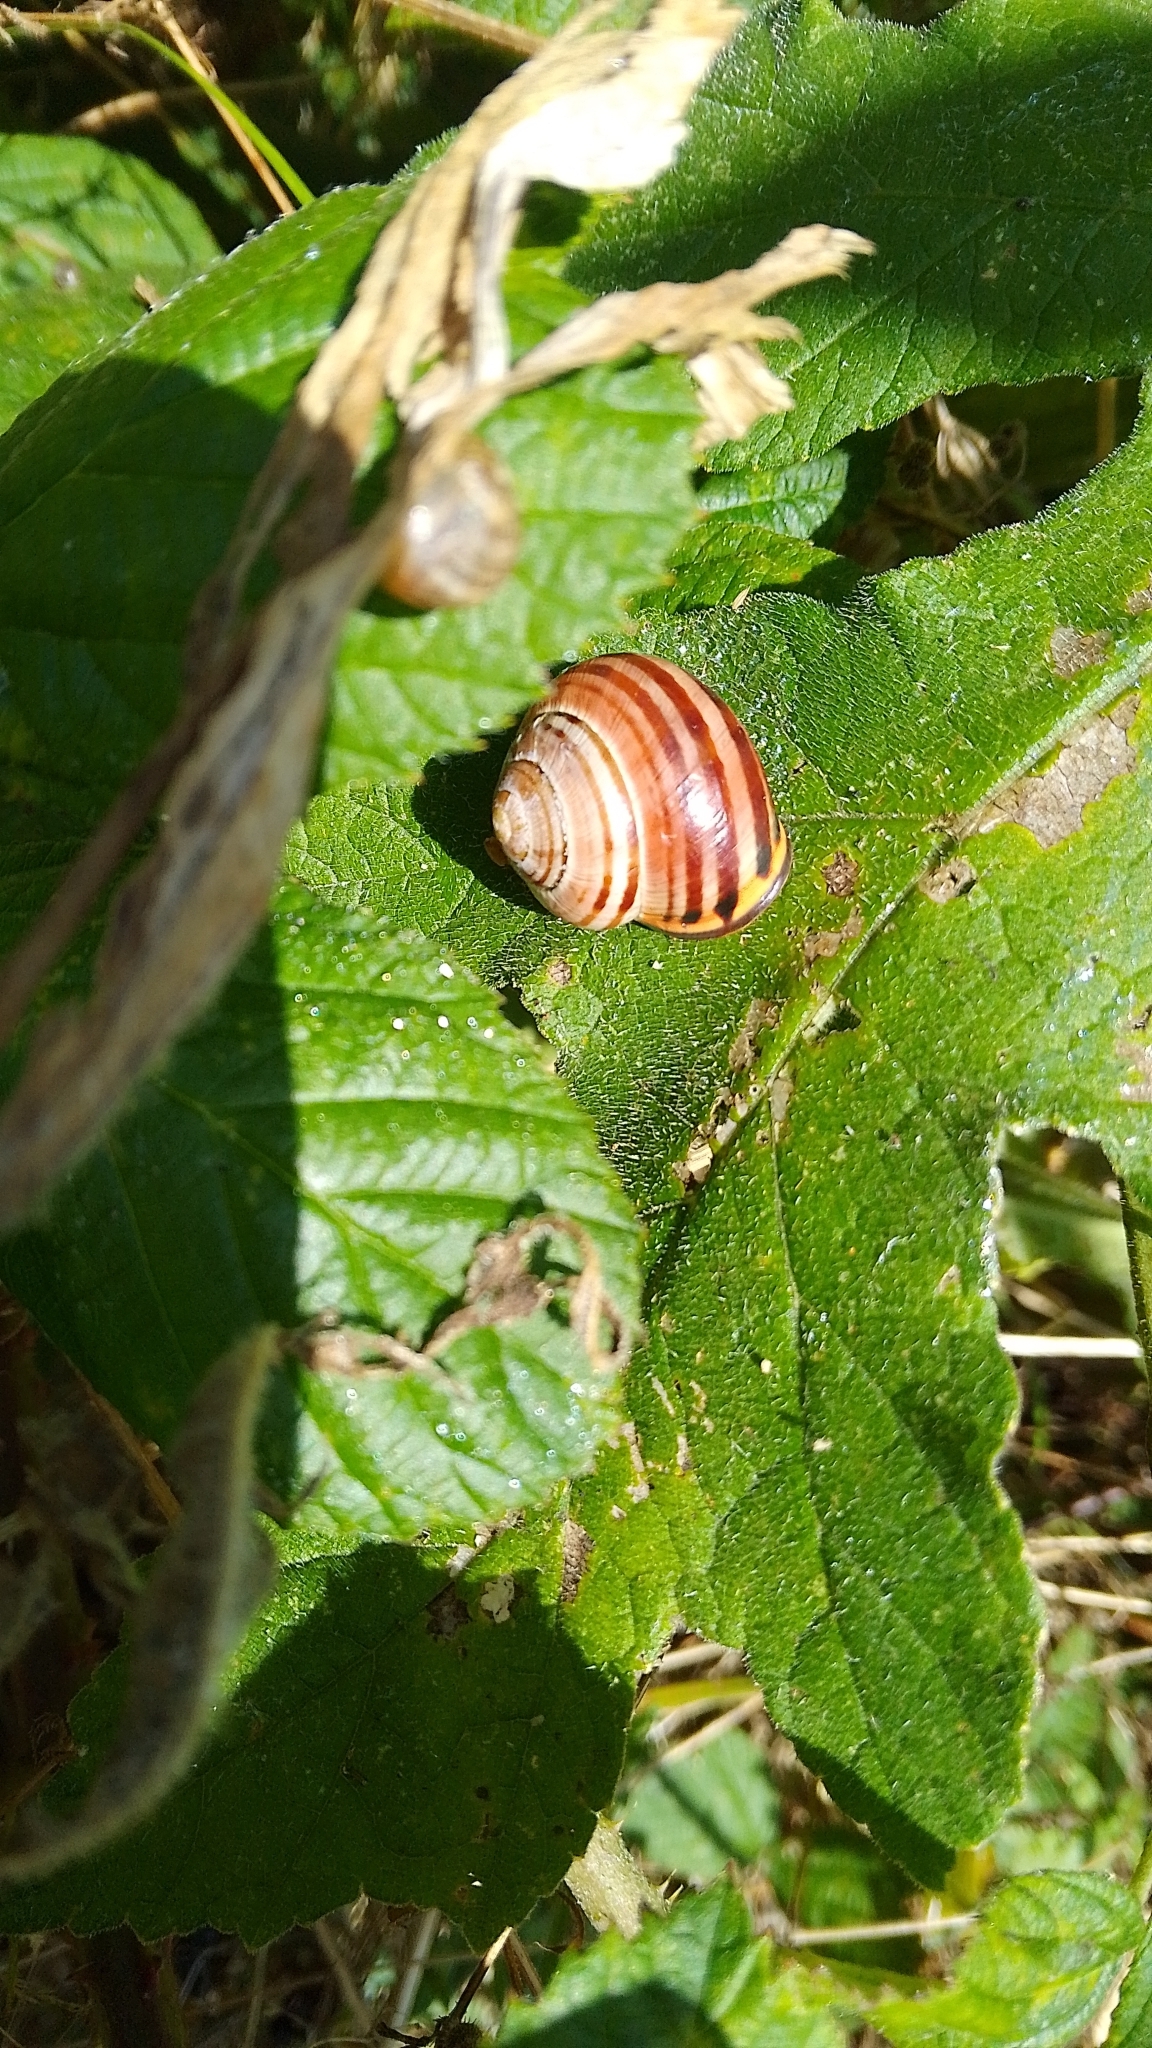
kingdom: Animalia
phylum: Mollusca
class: Gastropoda
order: Stylommatophora
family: Helicidae
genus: Cepaea
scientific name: Cepaea nemoralis
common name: Grovesnail
